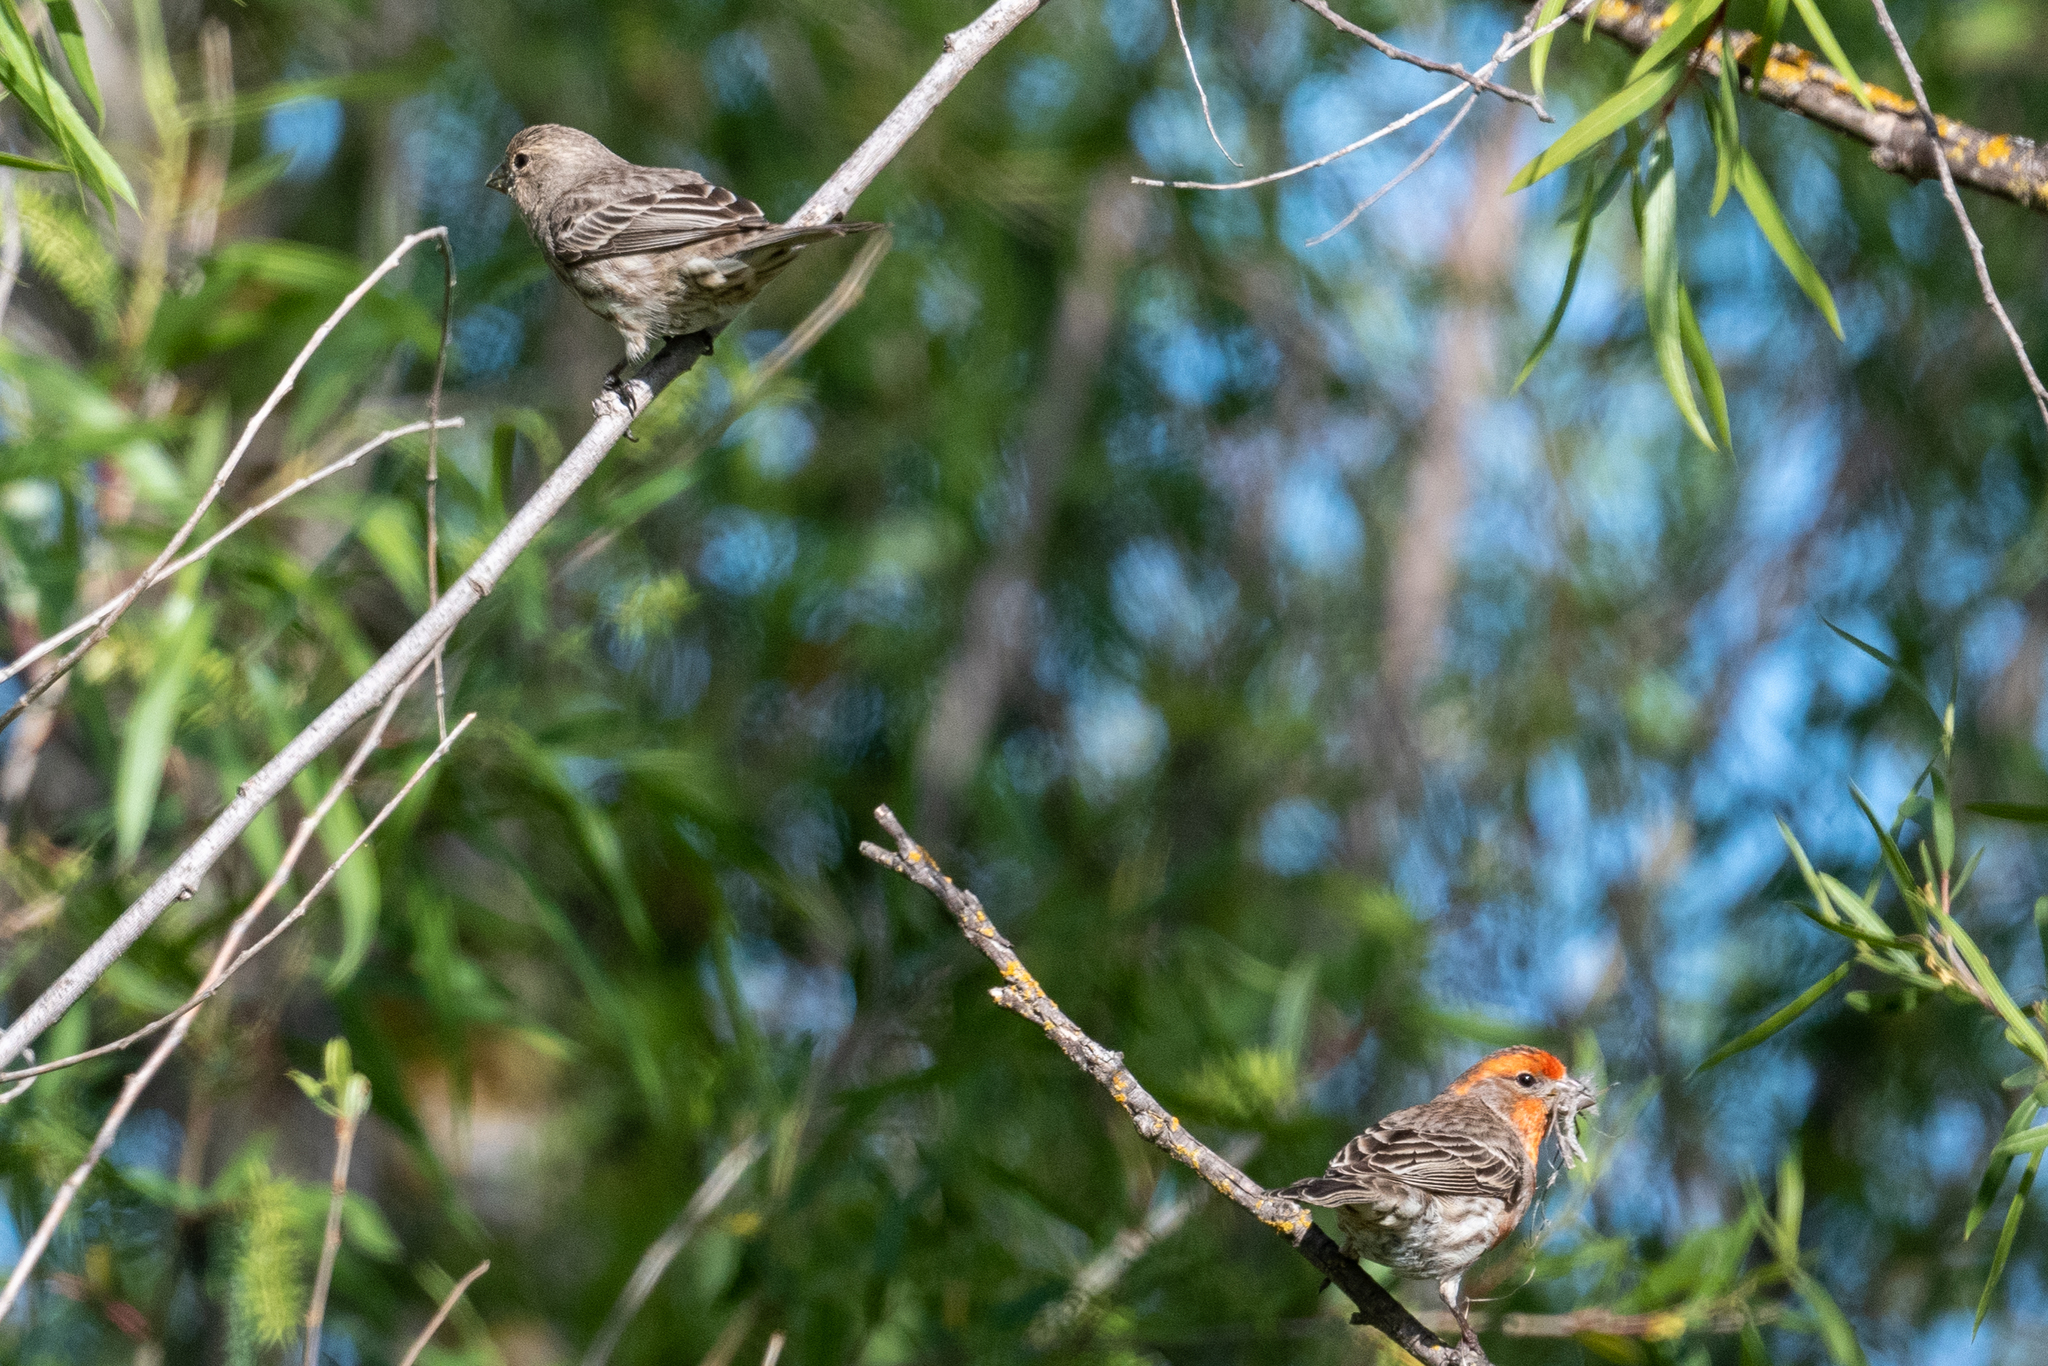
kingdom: Animalia
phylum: Chordata
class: Aves
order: Passeriformes
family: Fringillidae
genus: Haemorhous
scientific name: Haemorhous mexicanus
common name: House finch
